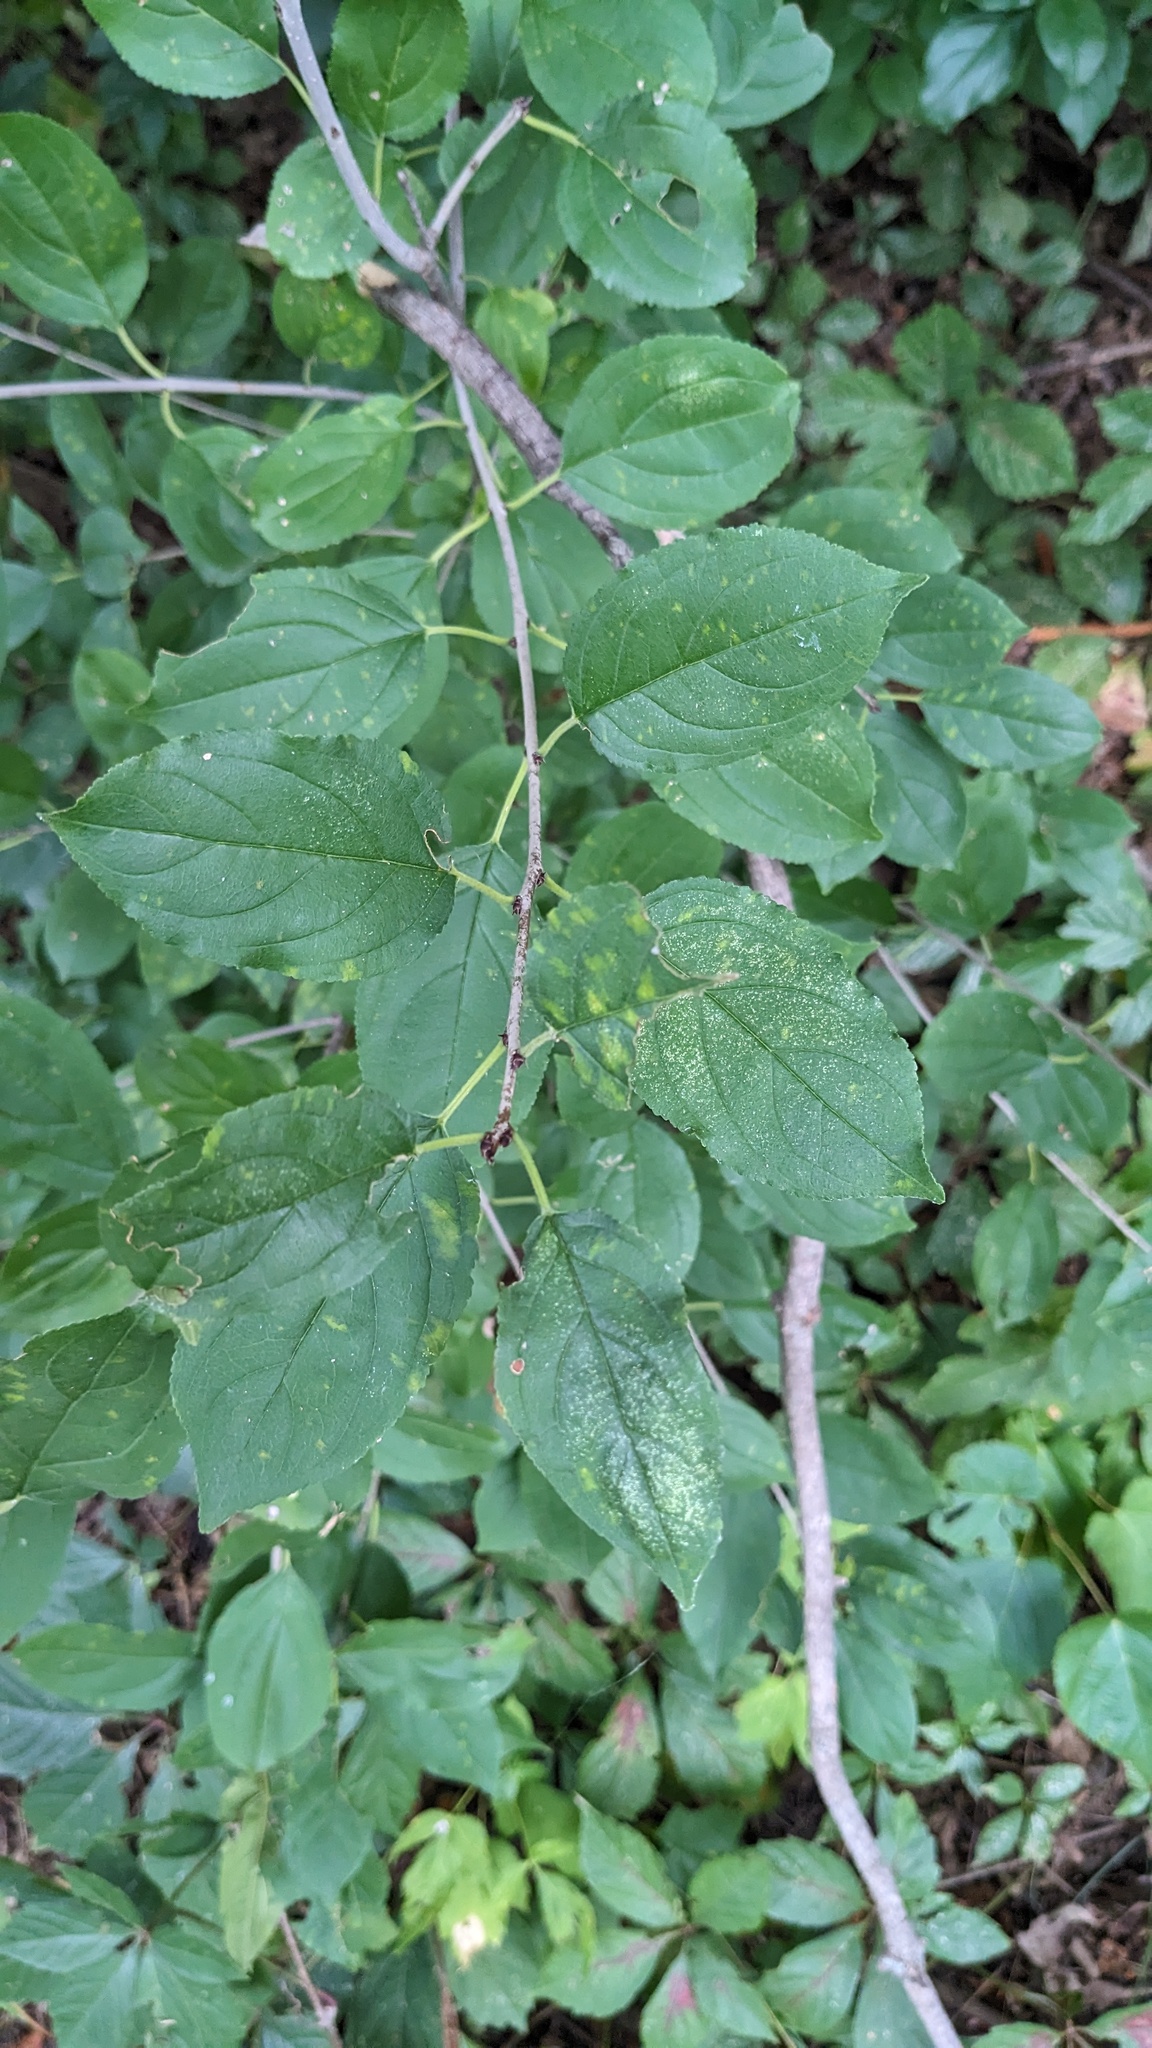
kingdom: Plantae
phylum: Tracheophyta
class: Magnoliopsida
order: Rosales
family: Rhamnaceae
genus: Rhamnus
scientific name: Rhamnus cathartica
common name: Common buckthorn
